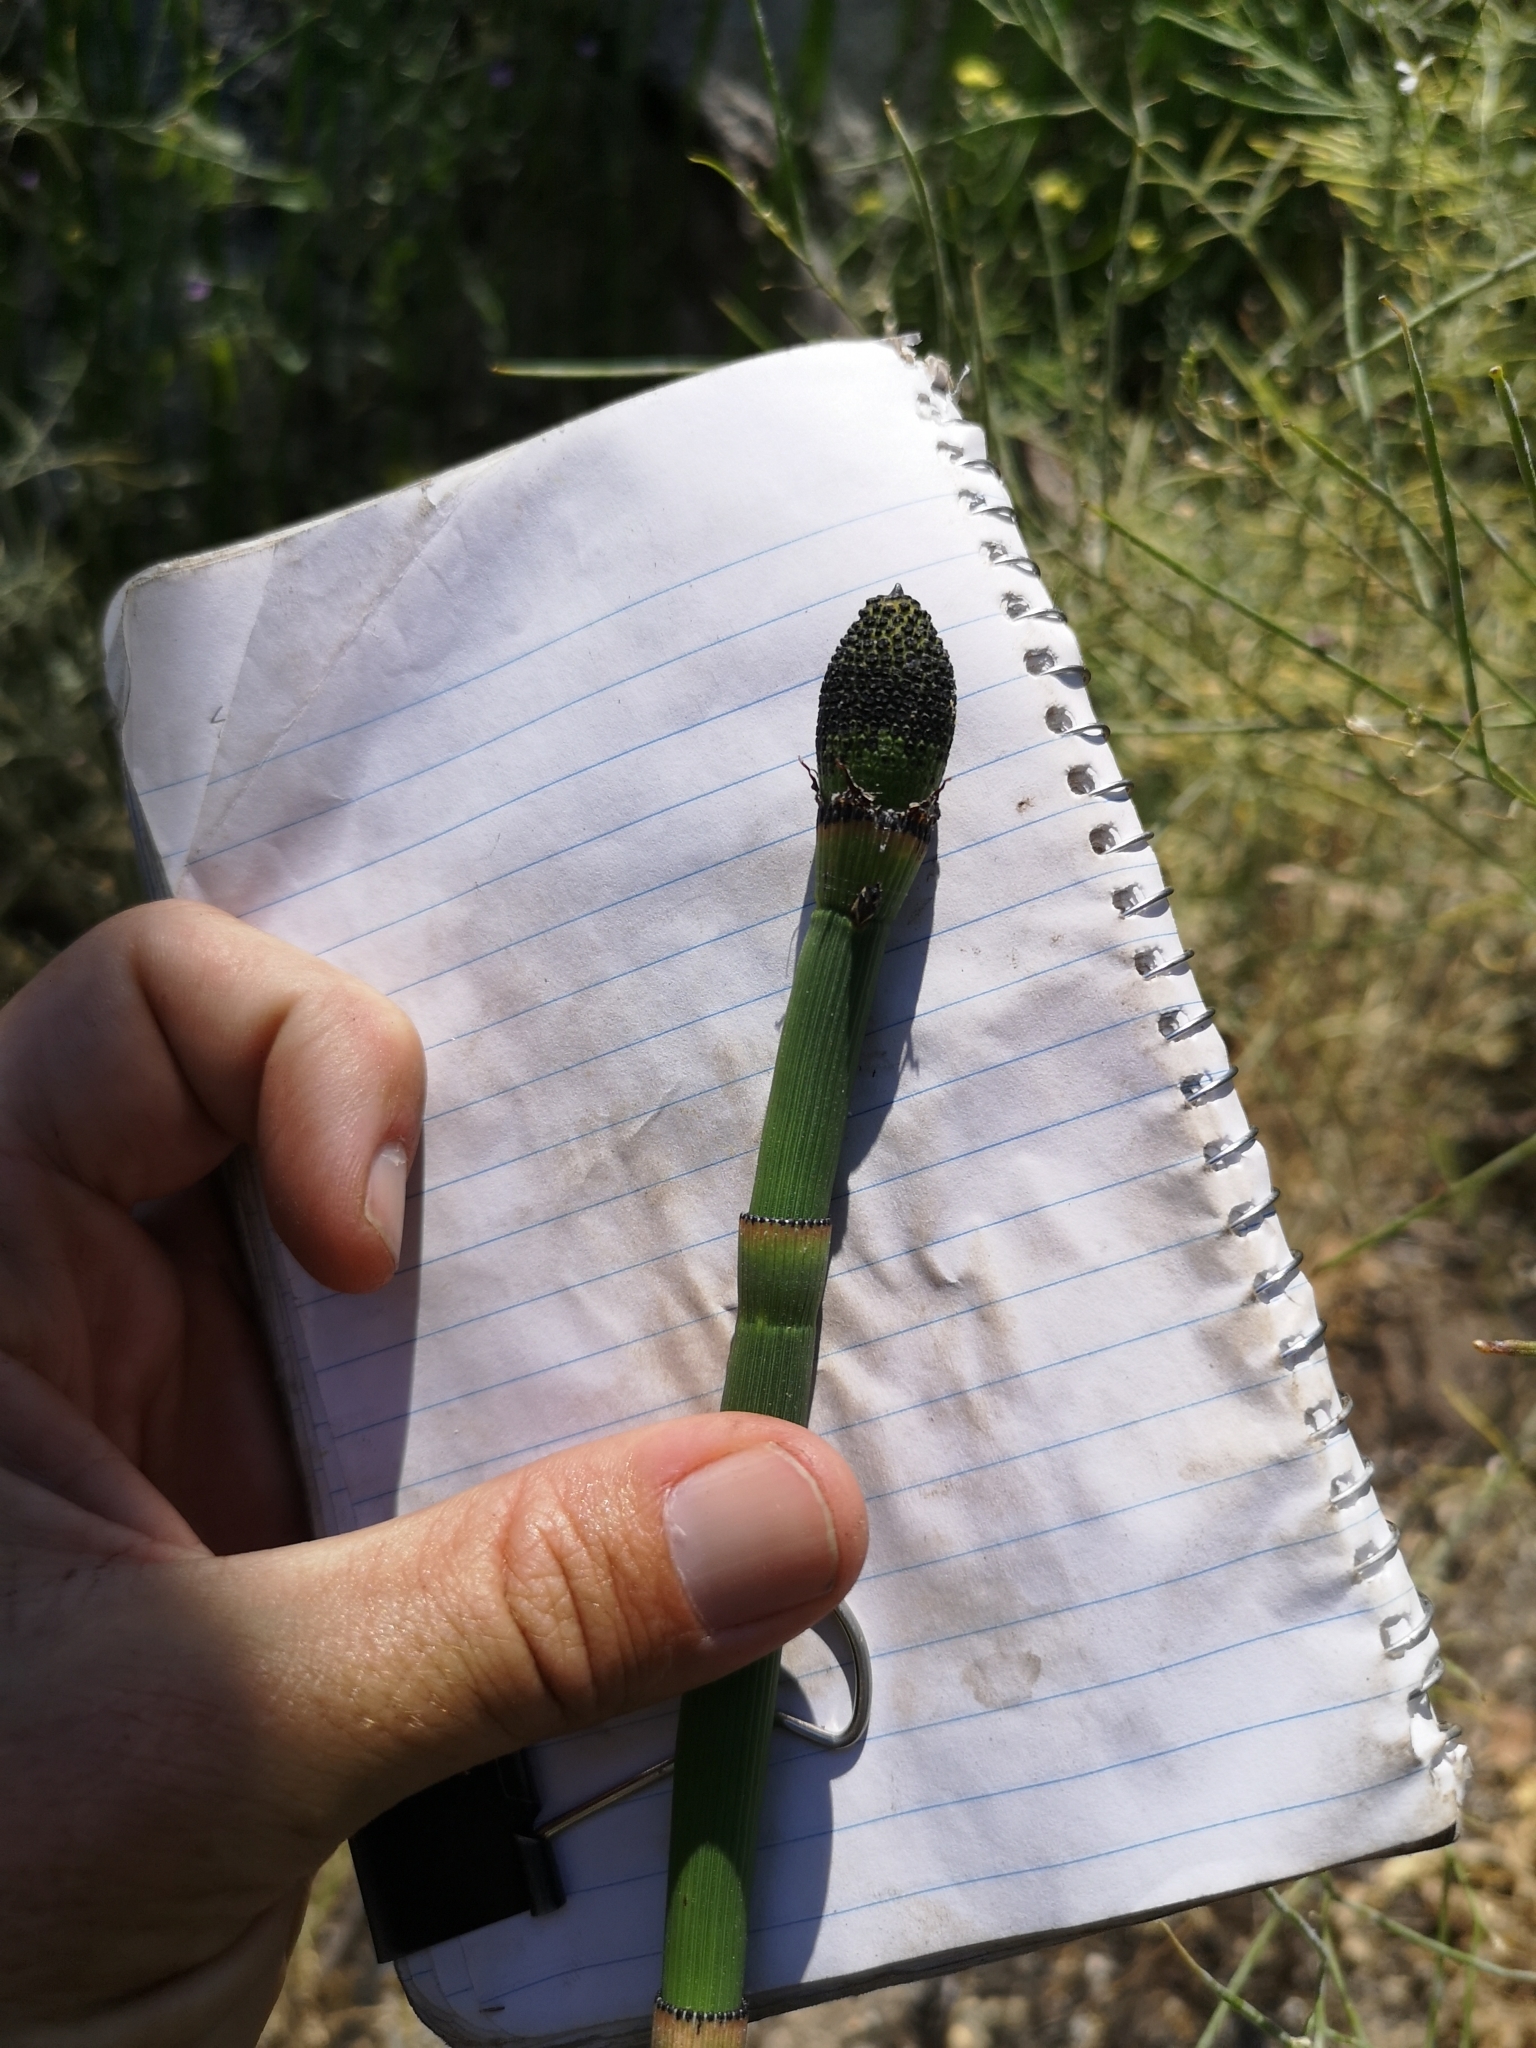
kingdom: Plantae
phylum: Tracheophyta
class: Polypodiopsida
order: Equisetales
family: Equisetaceae
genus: Equisetum
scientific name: Equisetum ferrissii
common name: Ferriss' horsetail
